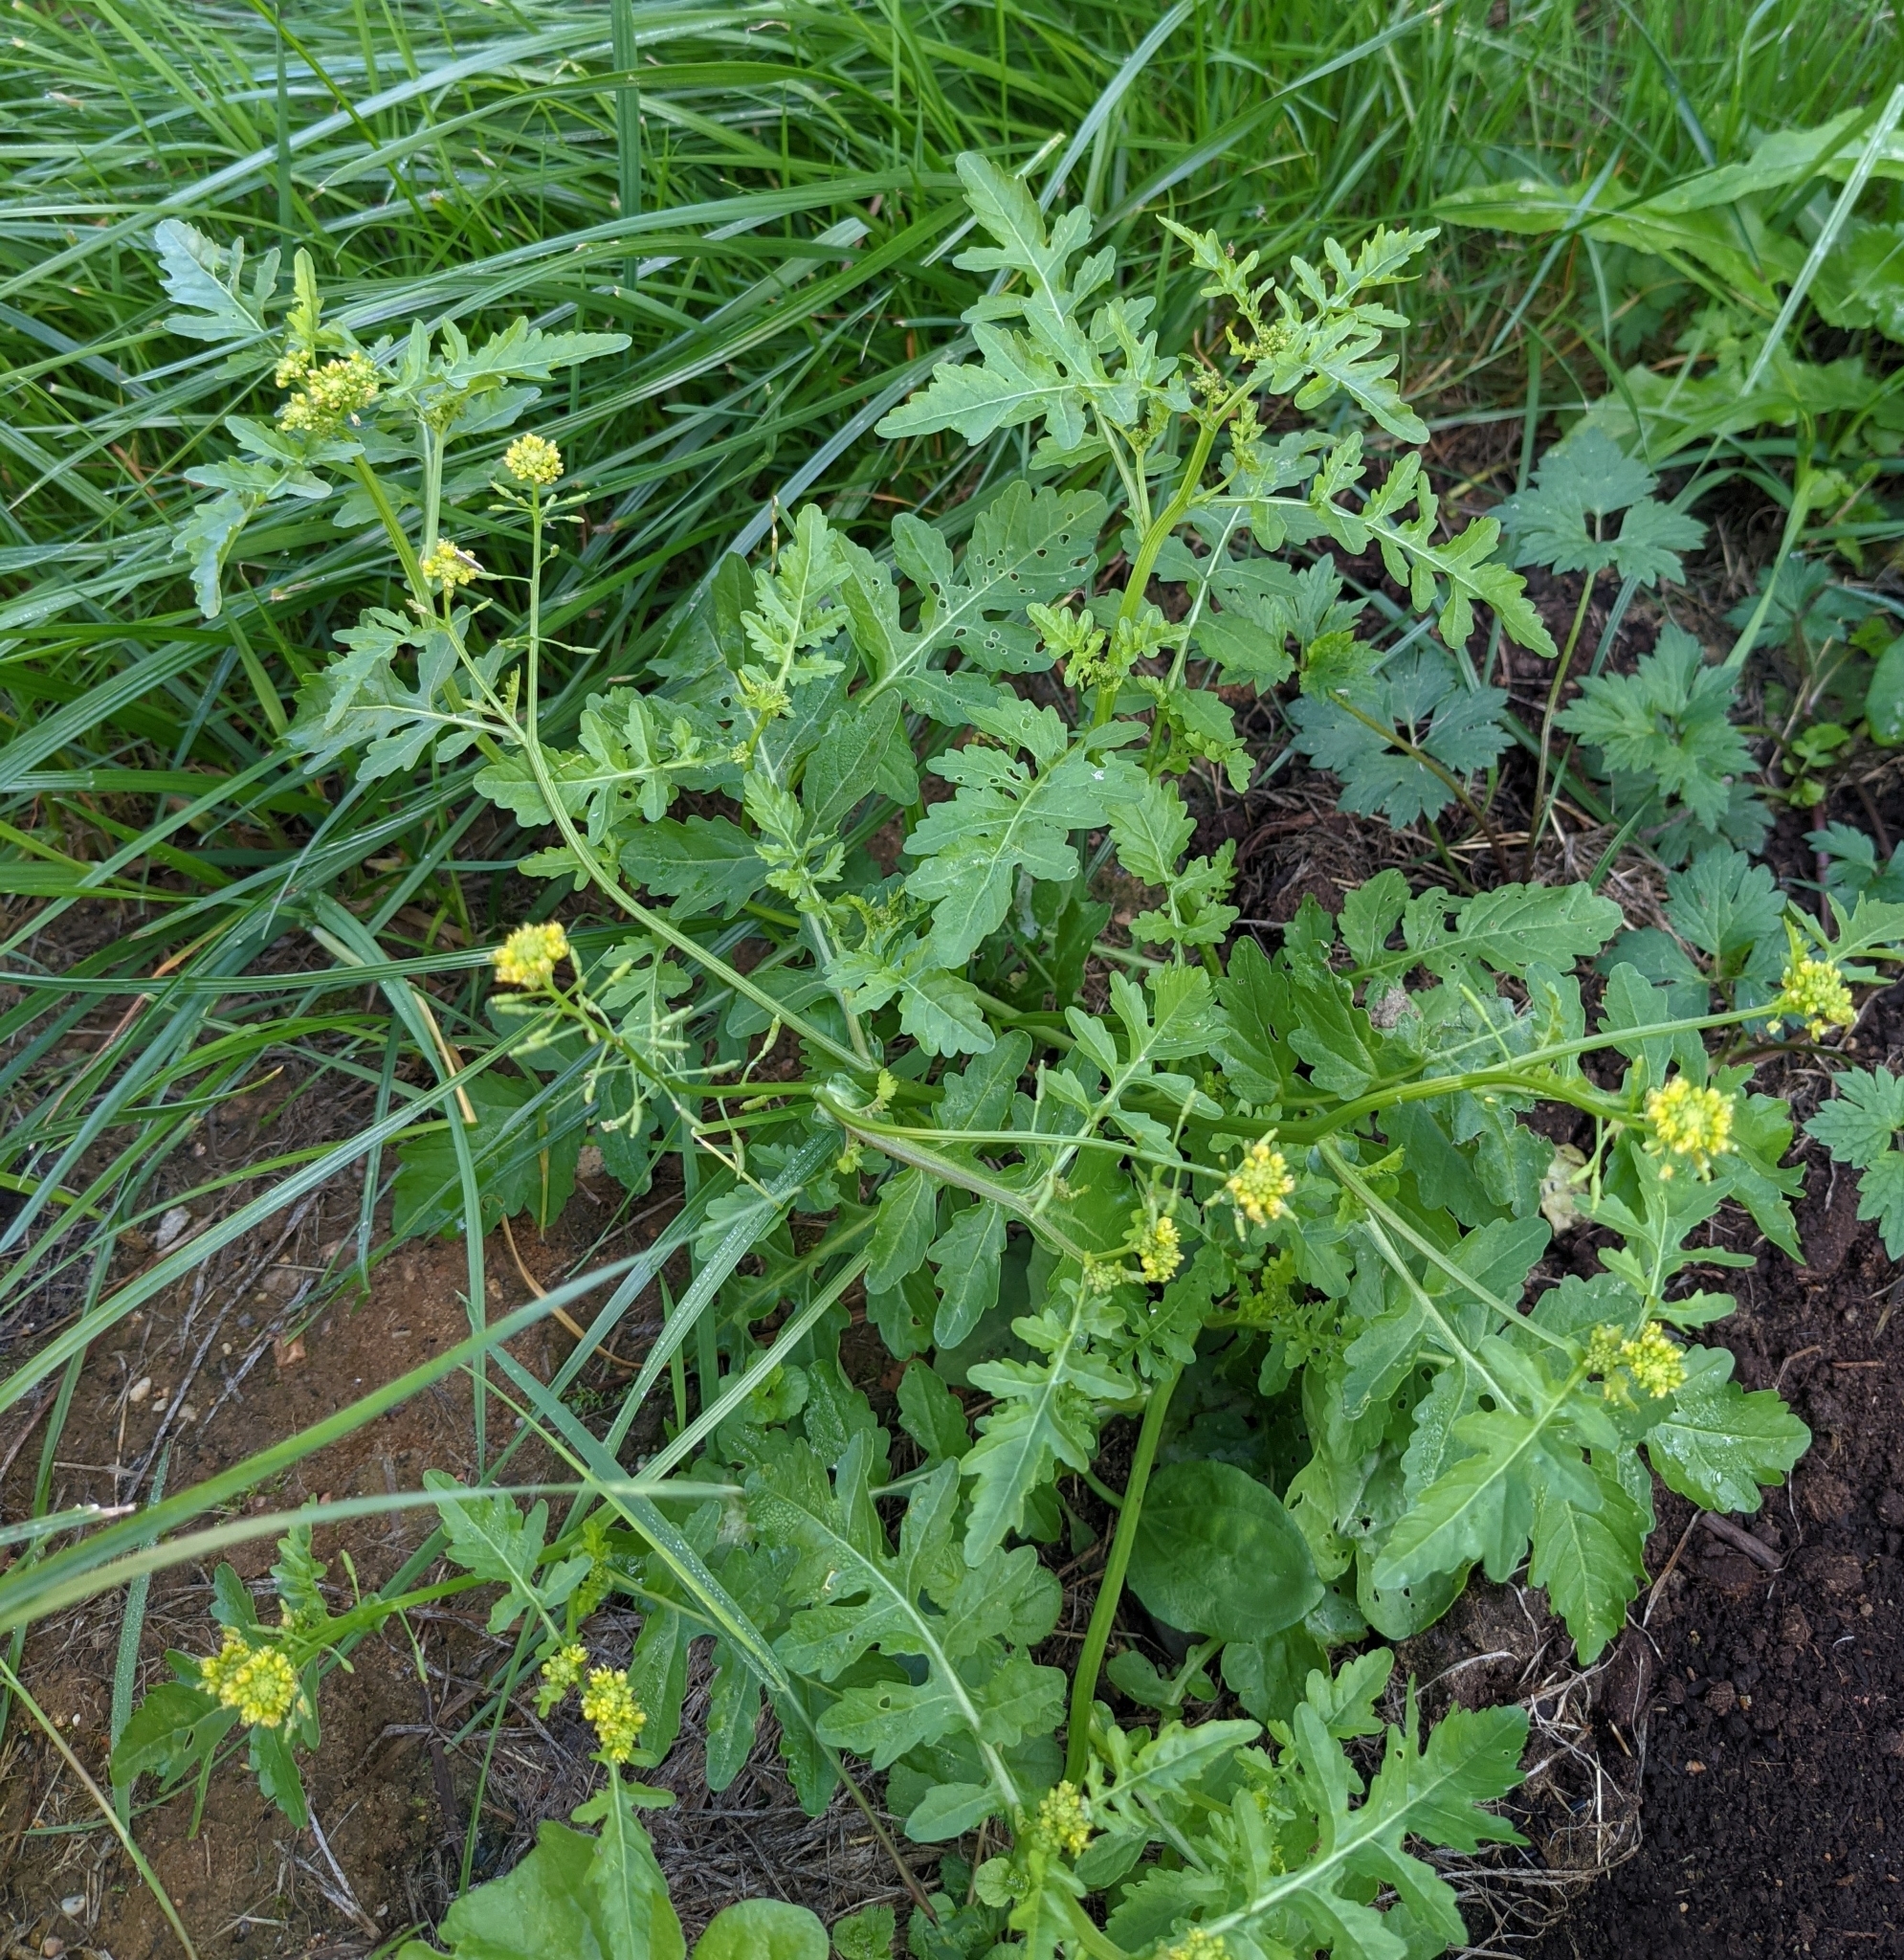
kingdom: Plantae
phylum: Tracheophyta
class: Magnoliopsida
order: Brassicales
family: Brassicaceae
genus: Rorippa
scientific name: Rorippa palustris
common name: Marsh yellow-cress
